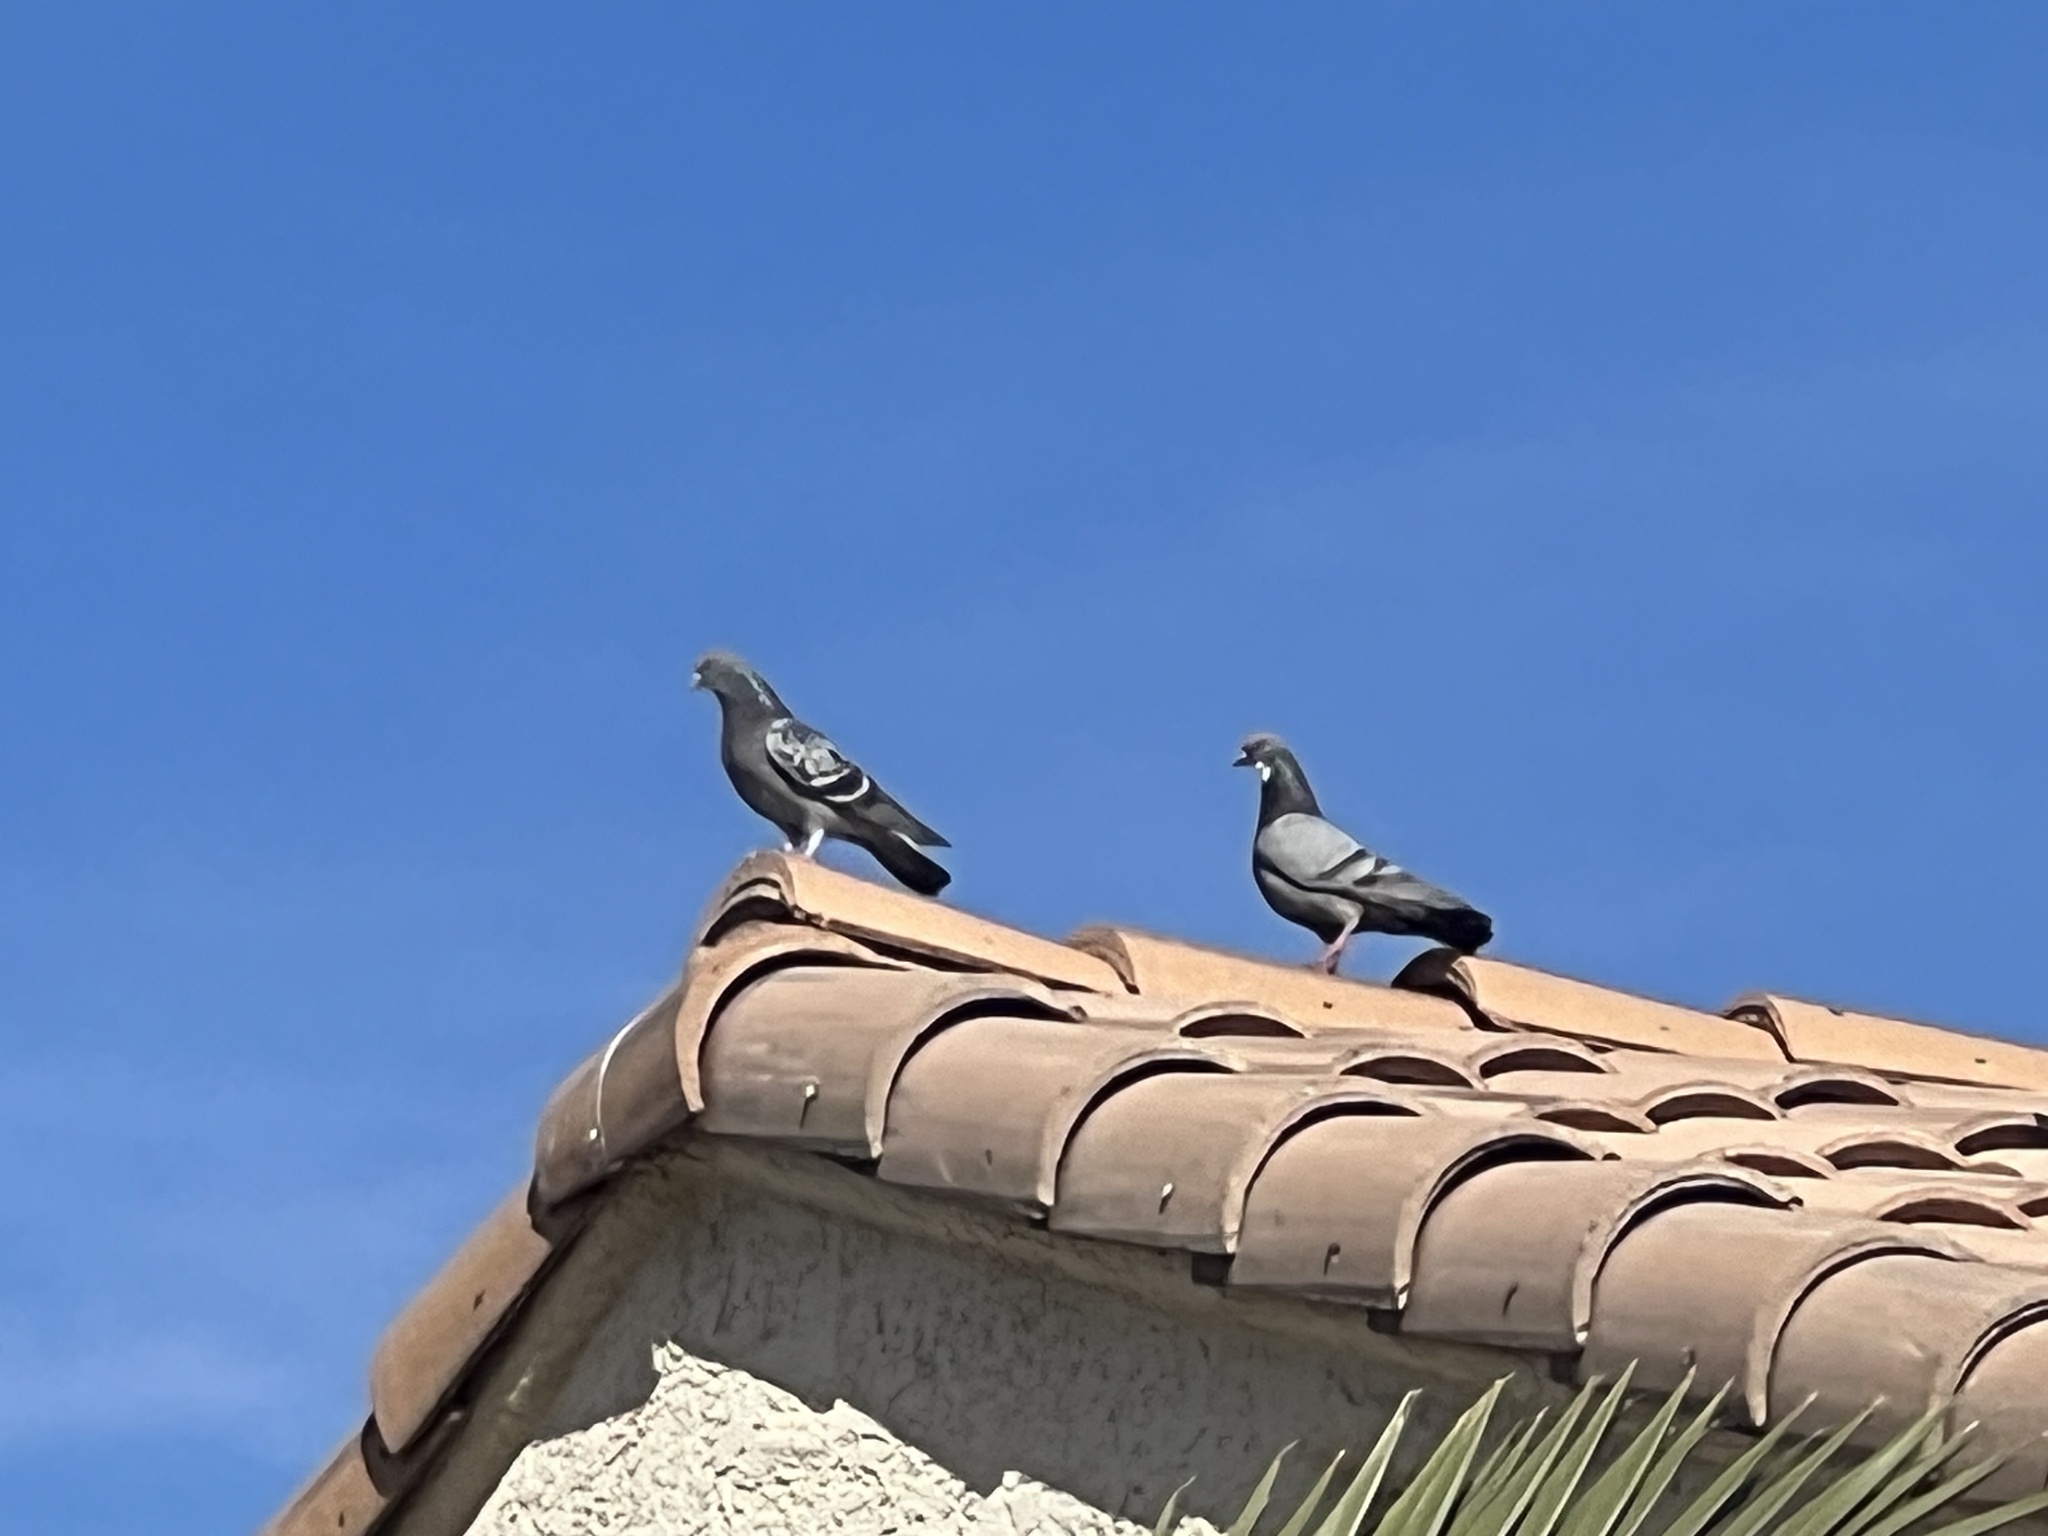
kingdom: Animalia
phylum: Chordata
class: Aves
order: Columbiformes
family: Columbidae
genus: Columba
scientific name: Columba livia
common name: Rock pigeon
